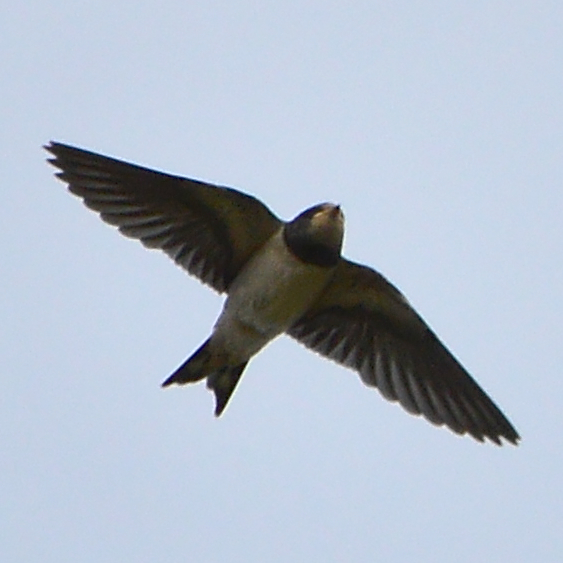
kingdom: Animalia
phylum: Chordata
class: Aves
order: Passeriformes
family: Hirundinidae
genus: Hirundo
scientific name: Hirundo rustica
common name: Barn swallow
